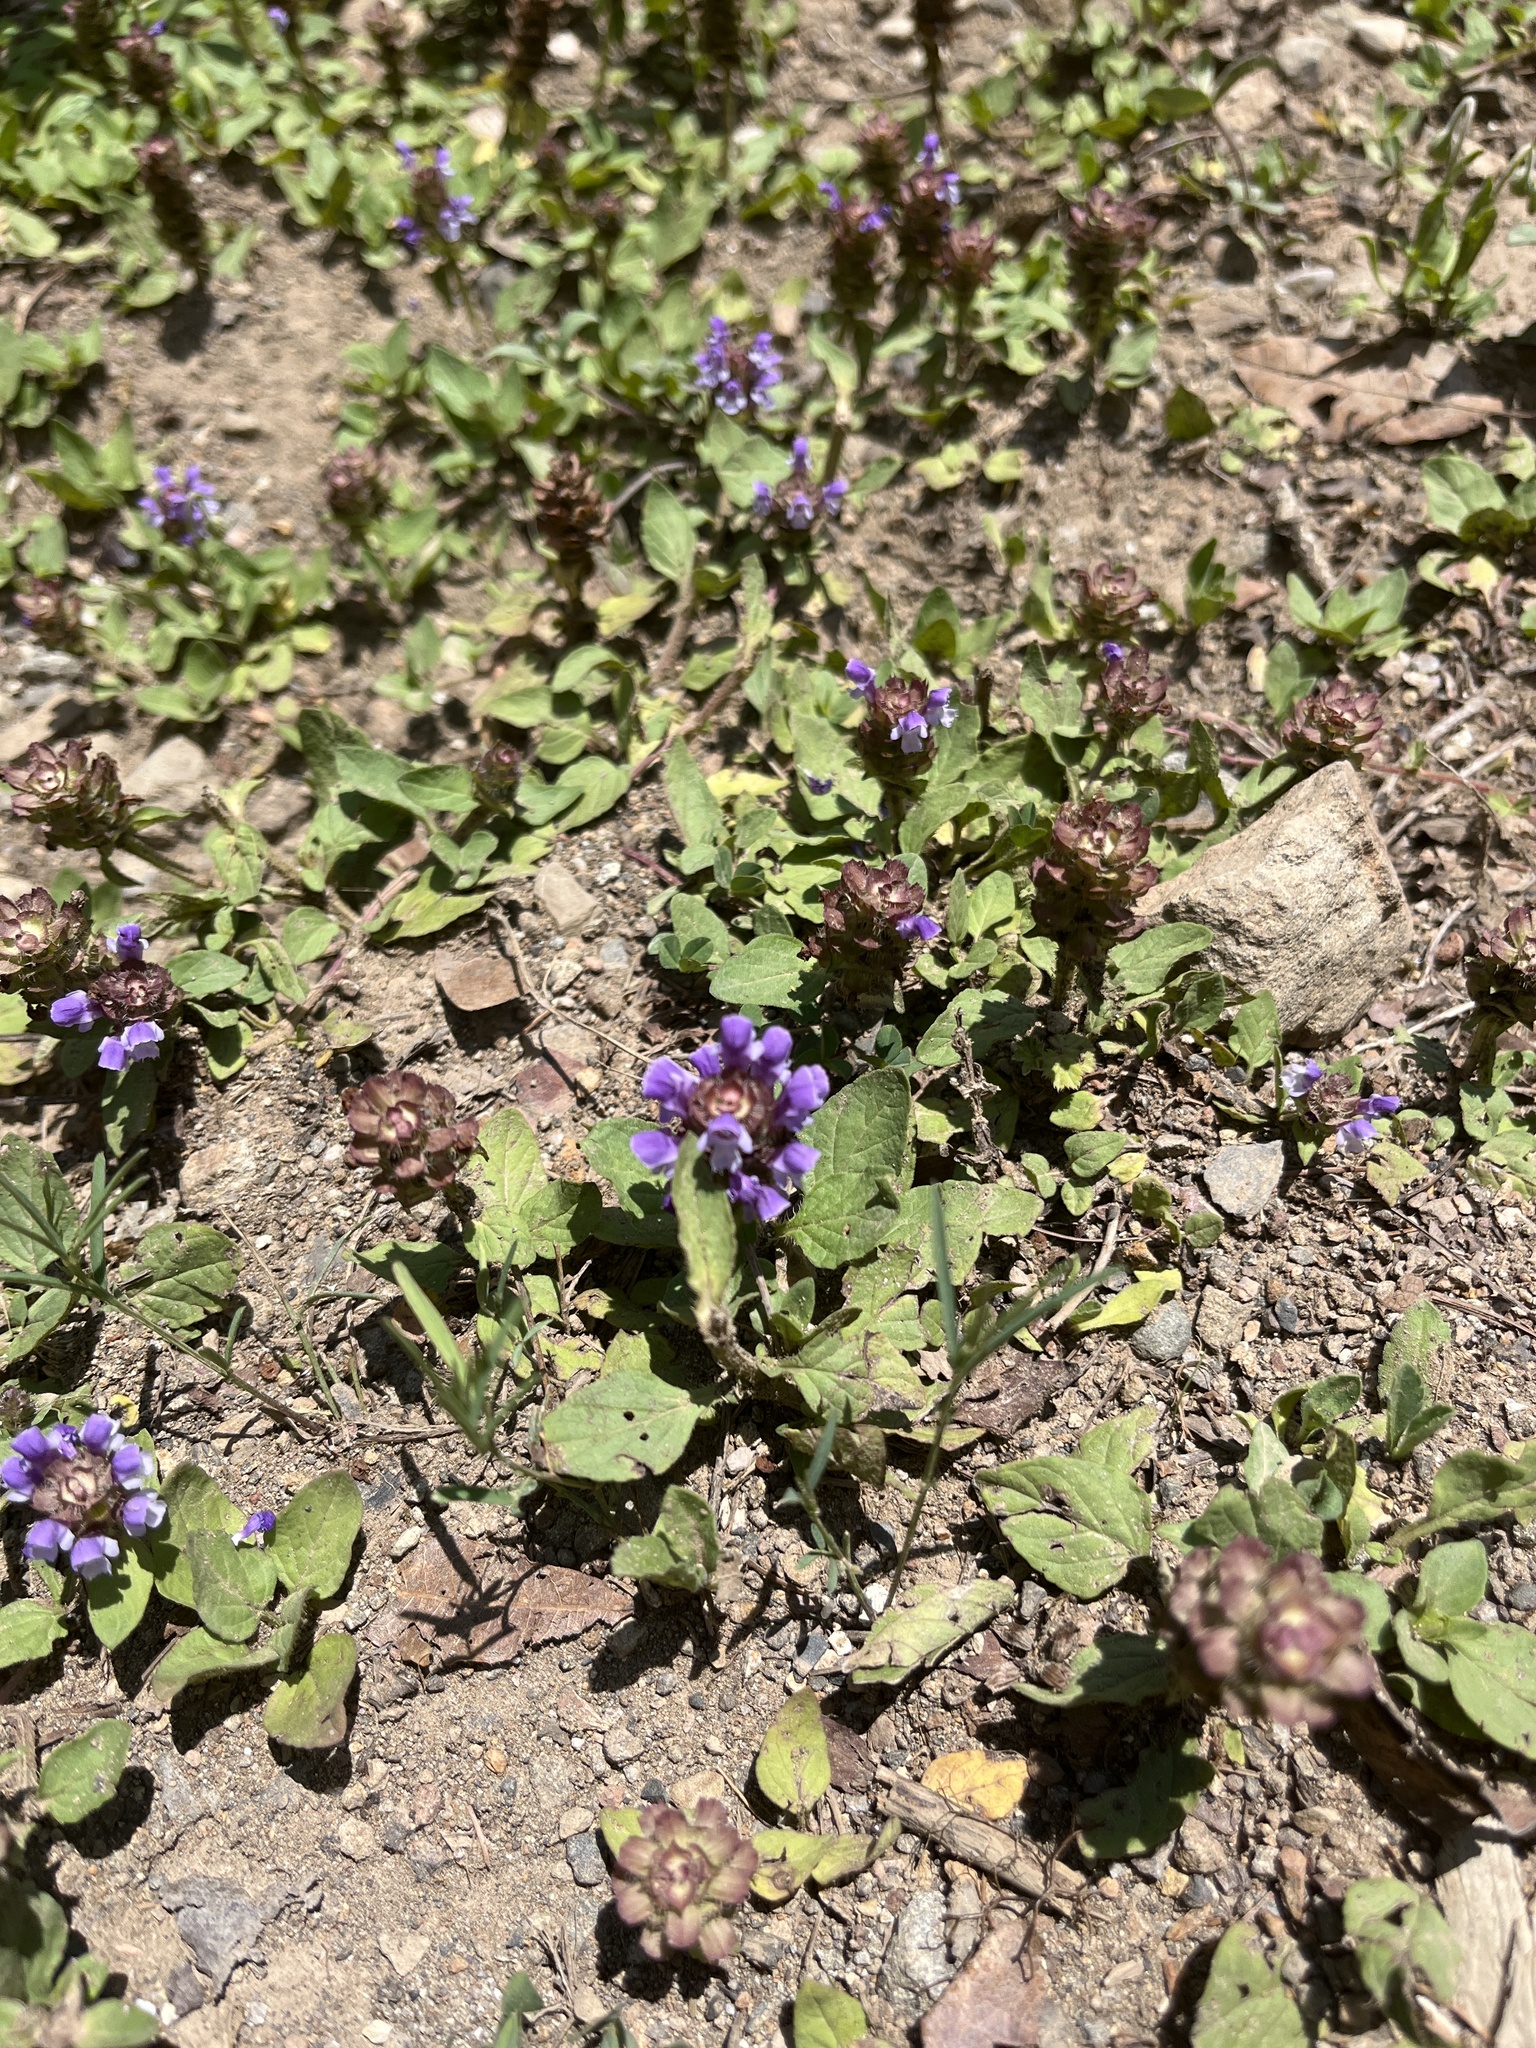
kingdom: Plantae
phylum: Tracheophyta
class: Magnoliopsida
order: Lamiales
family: Lamiaceae
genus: Prunella
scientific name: Prunella vulgaris
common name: Heal-all
